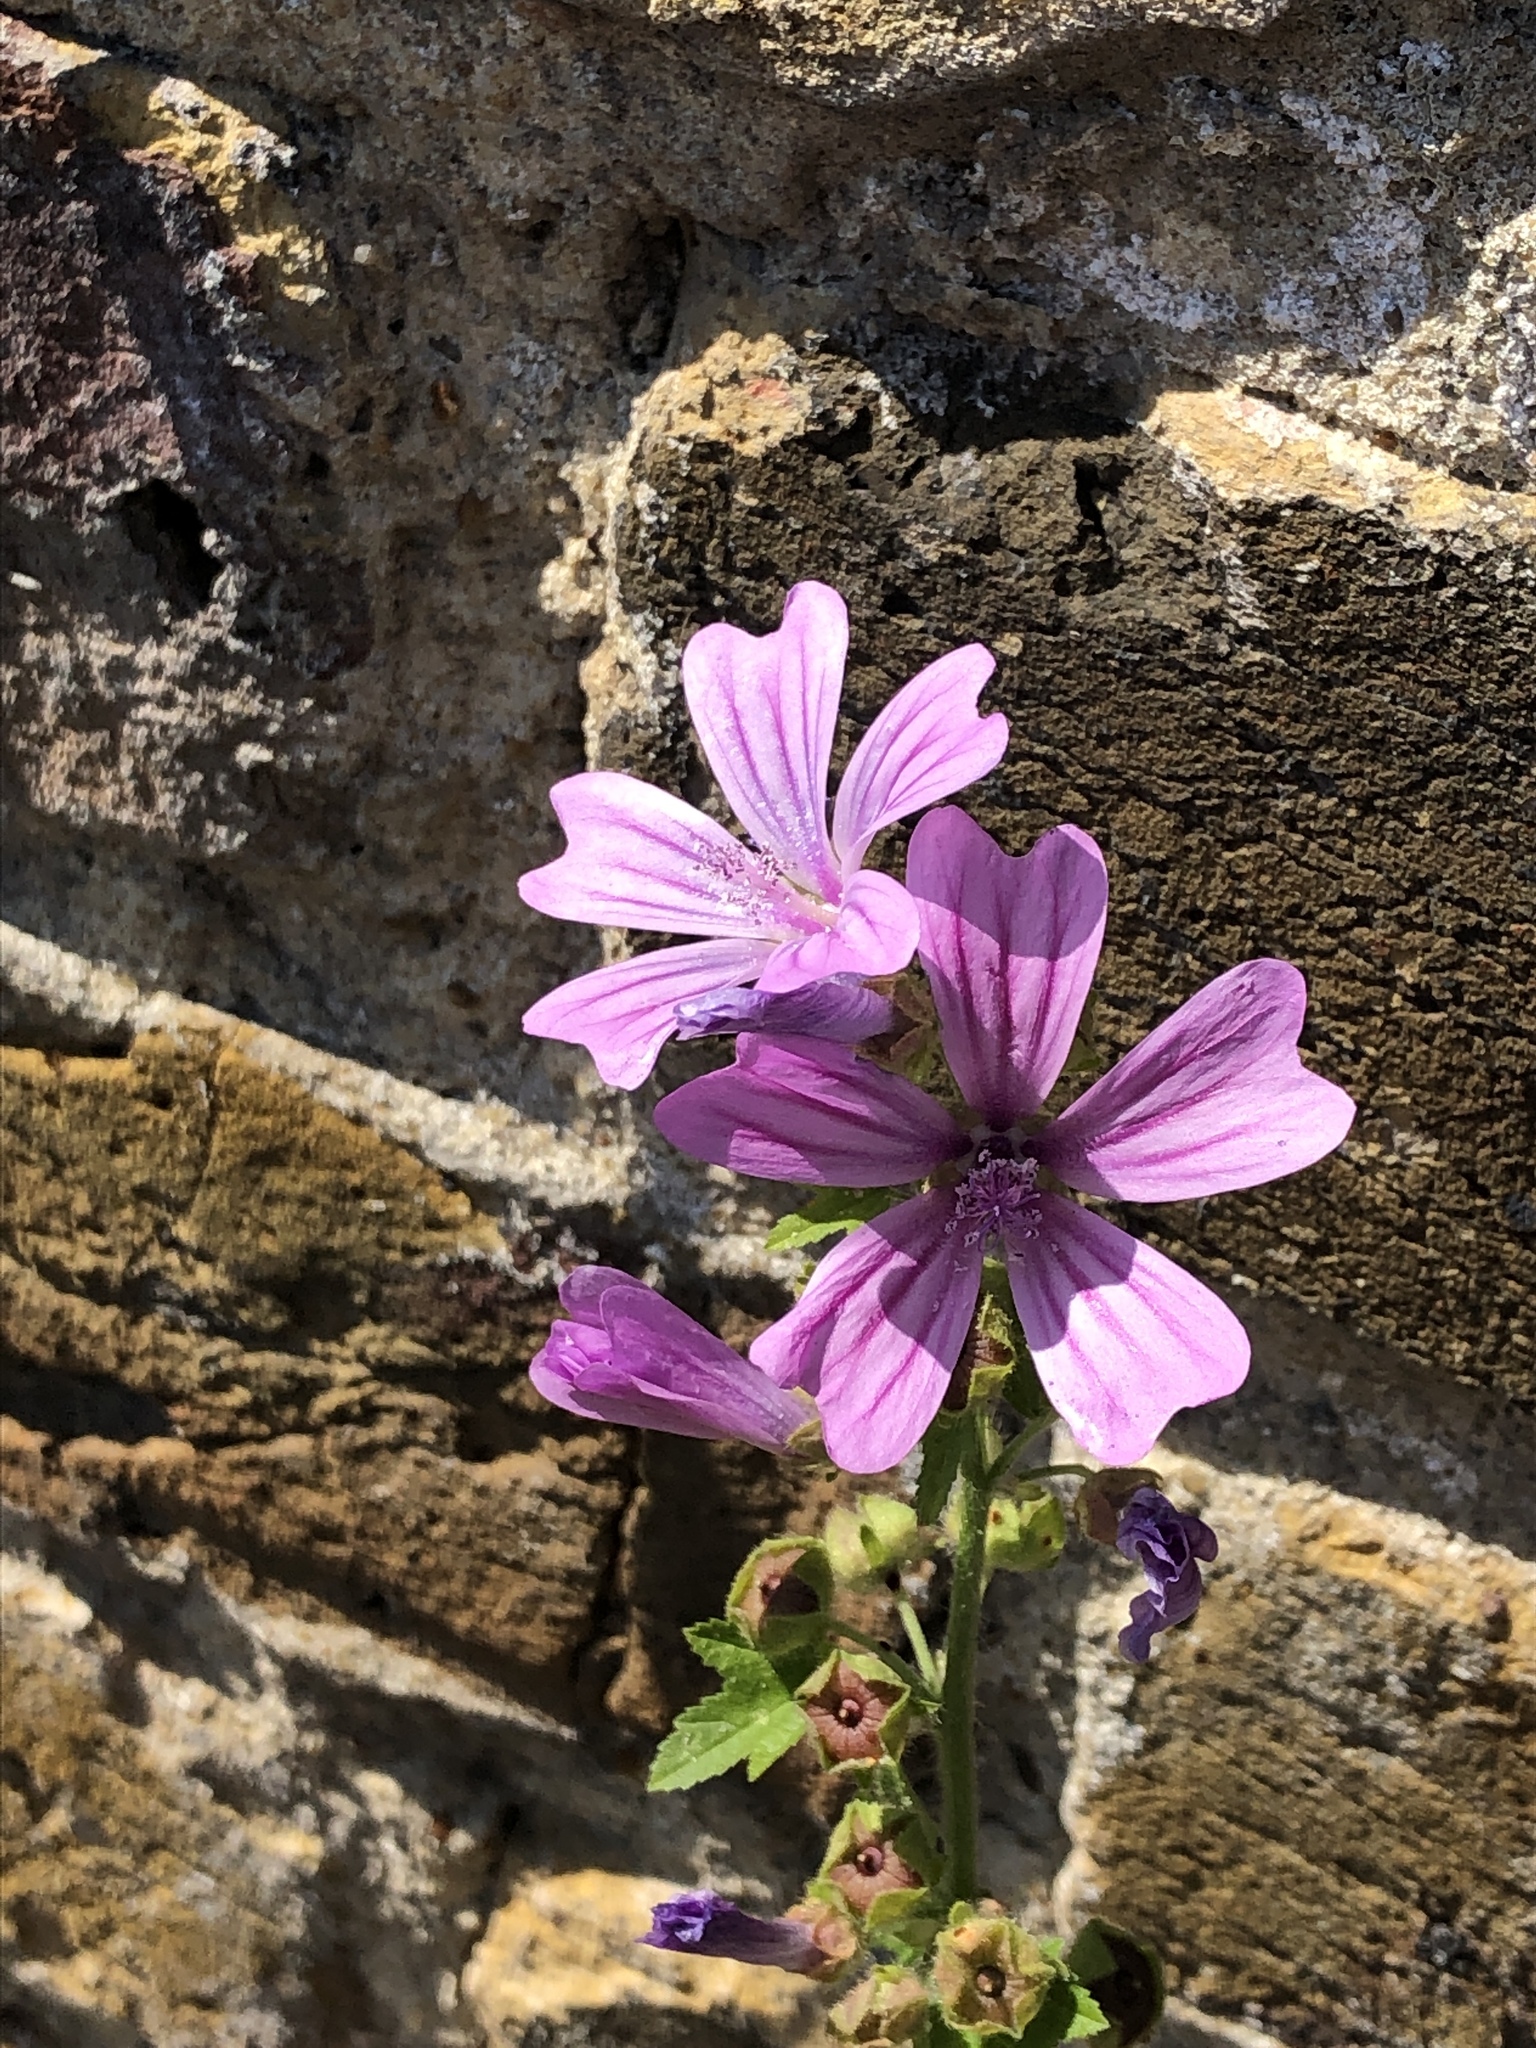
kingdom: Plantae
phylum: Tracheophyta
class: Magnoliopsida
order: Malvales
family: Malvaceae
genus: Malva
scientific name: Malva sylvestris
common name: Common mallow
